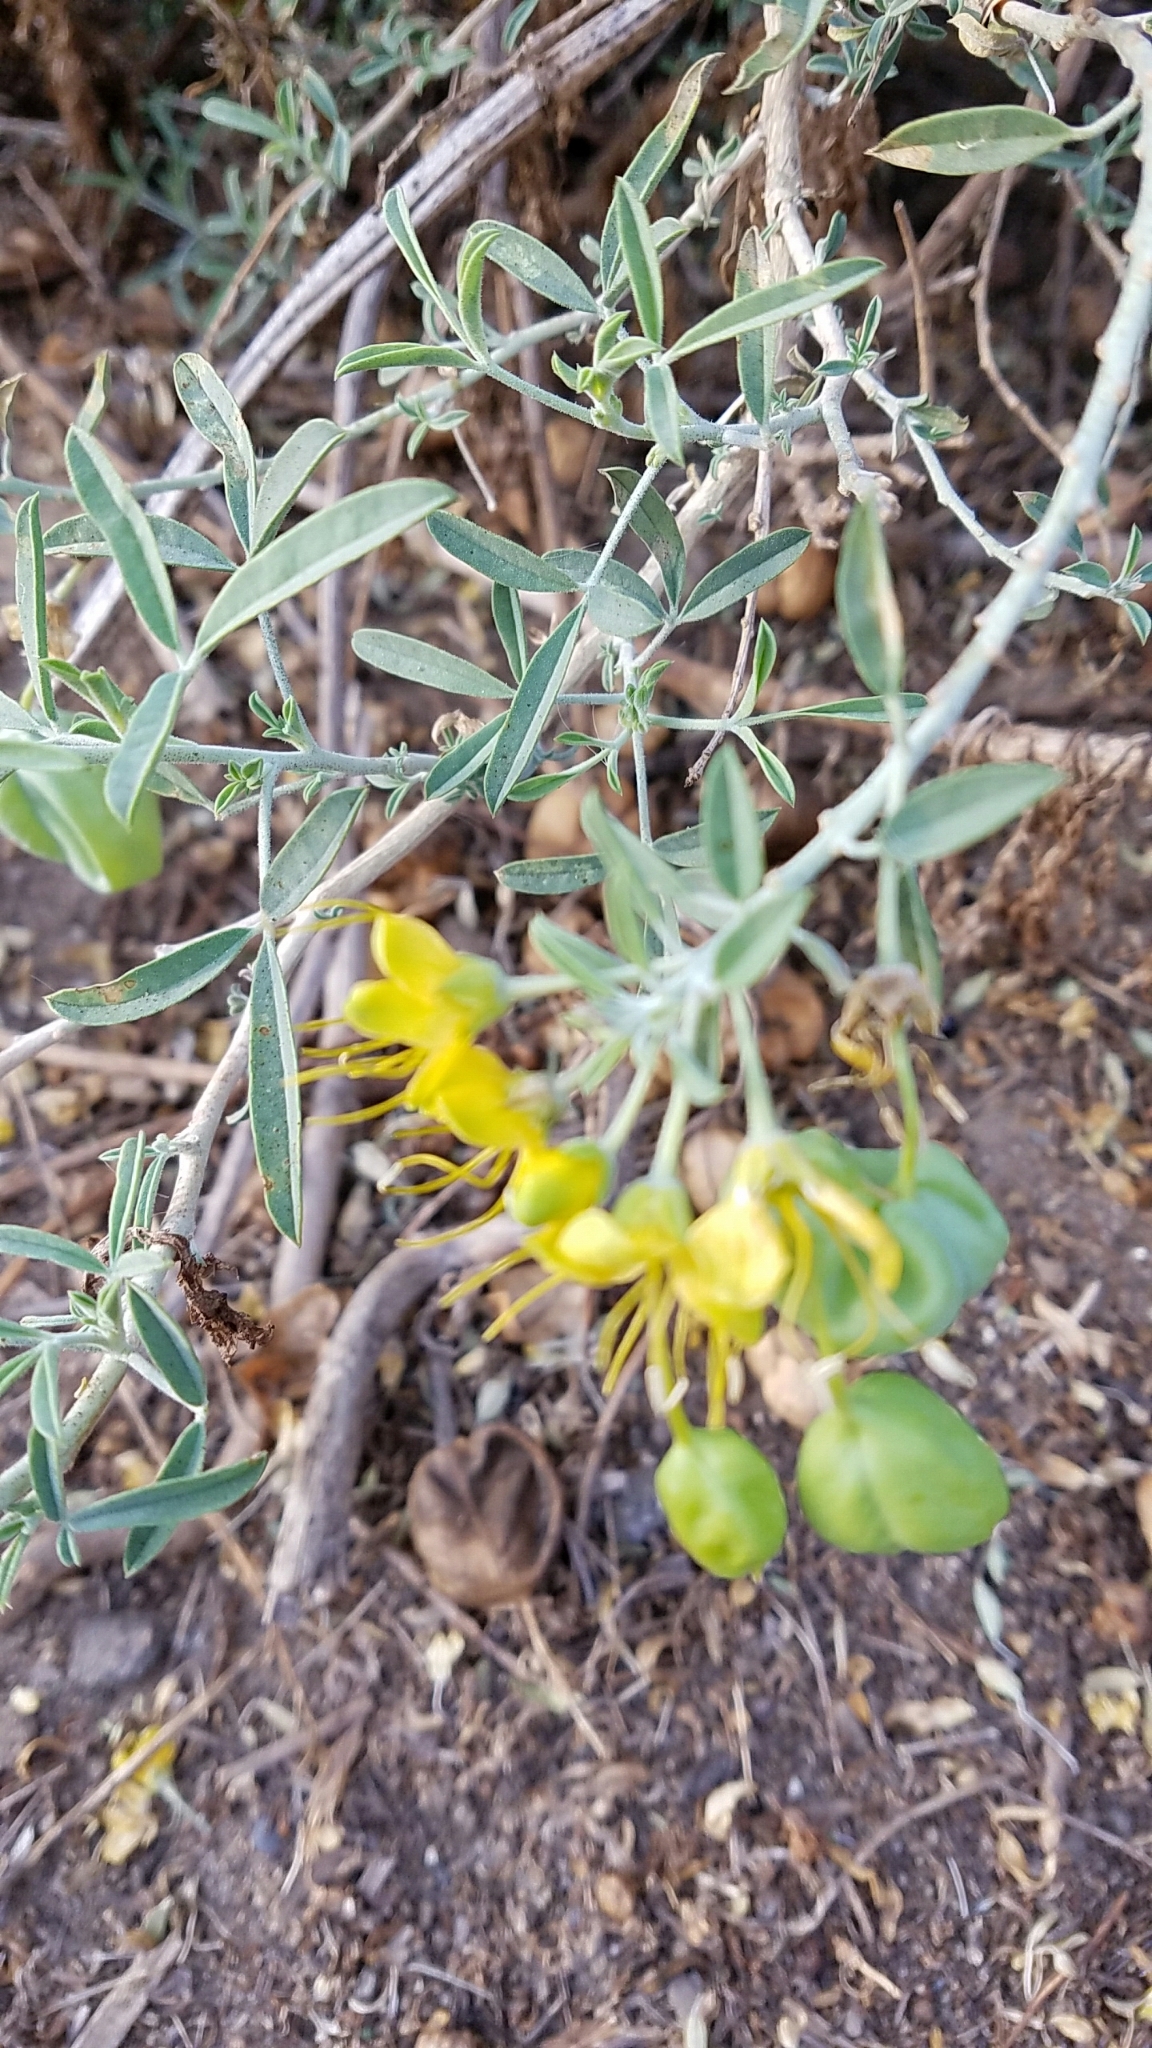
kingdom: Plantae
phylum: Tracheophyta
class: Magnoliopsida
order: Brassicales
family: Cleomaceae
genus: Cleomella
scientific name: Cleomella arborea
